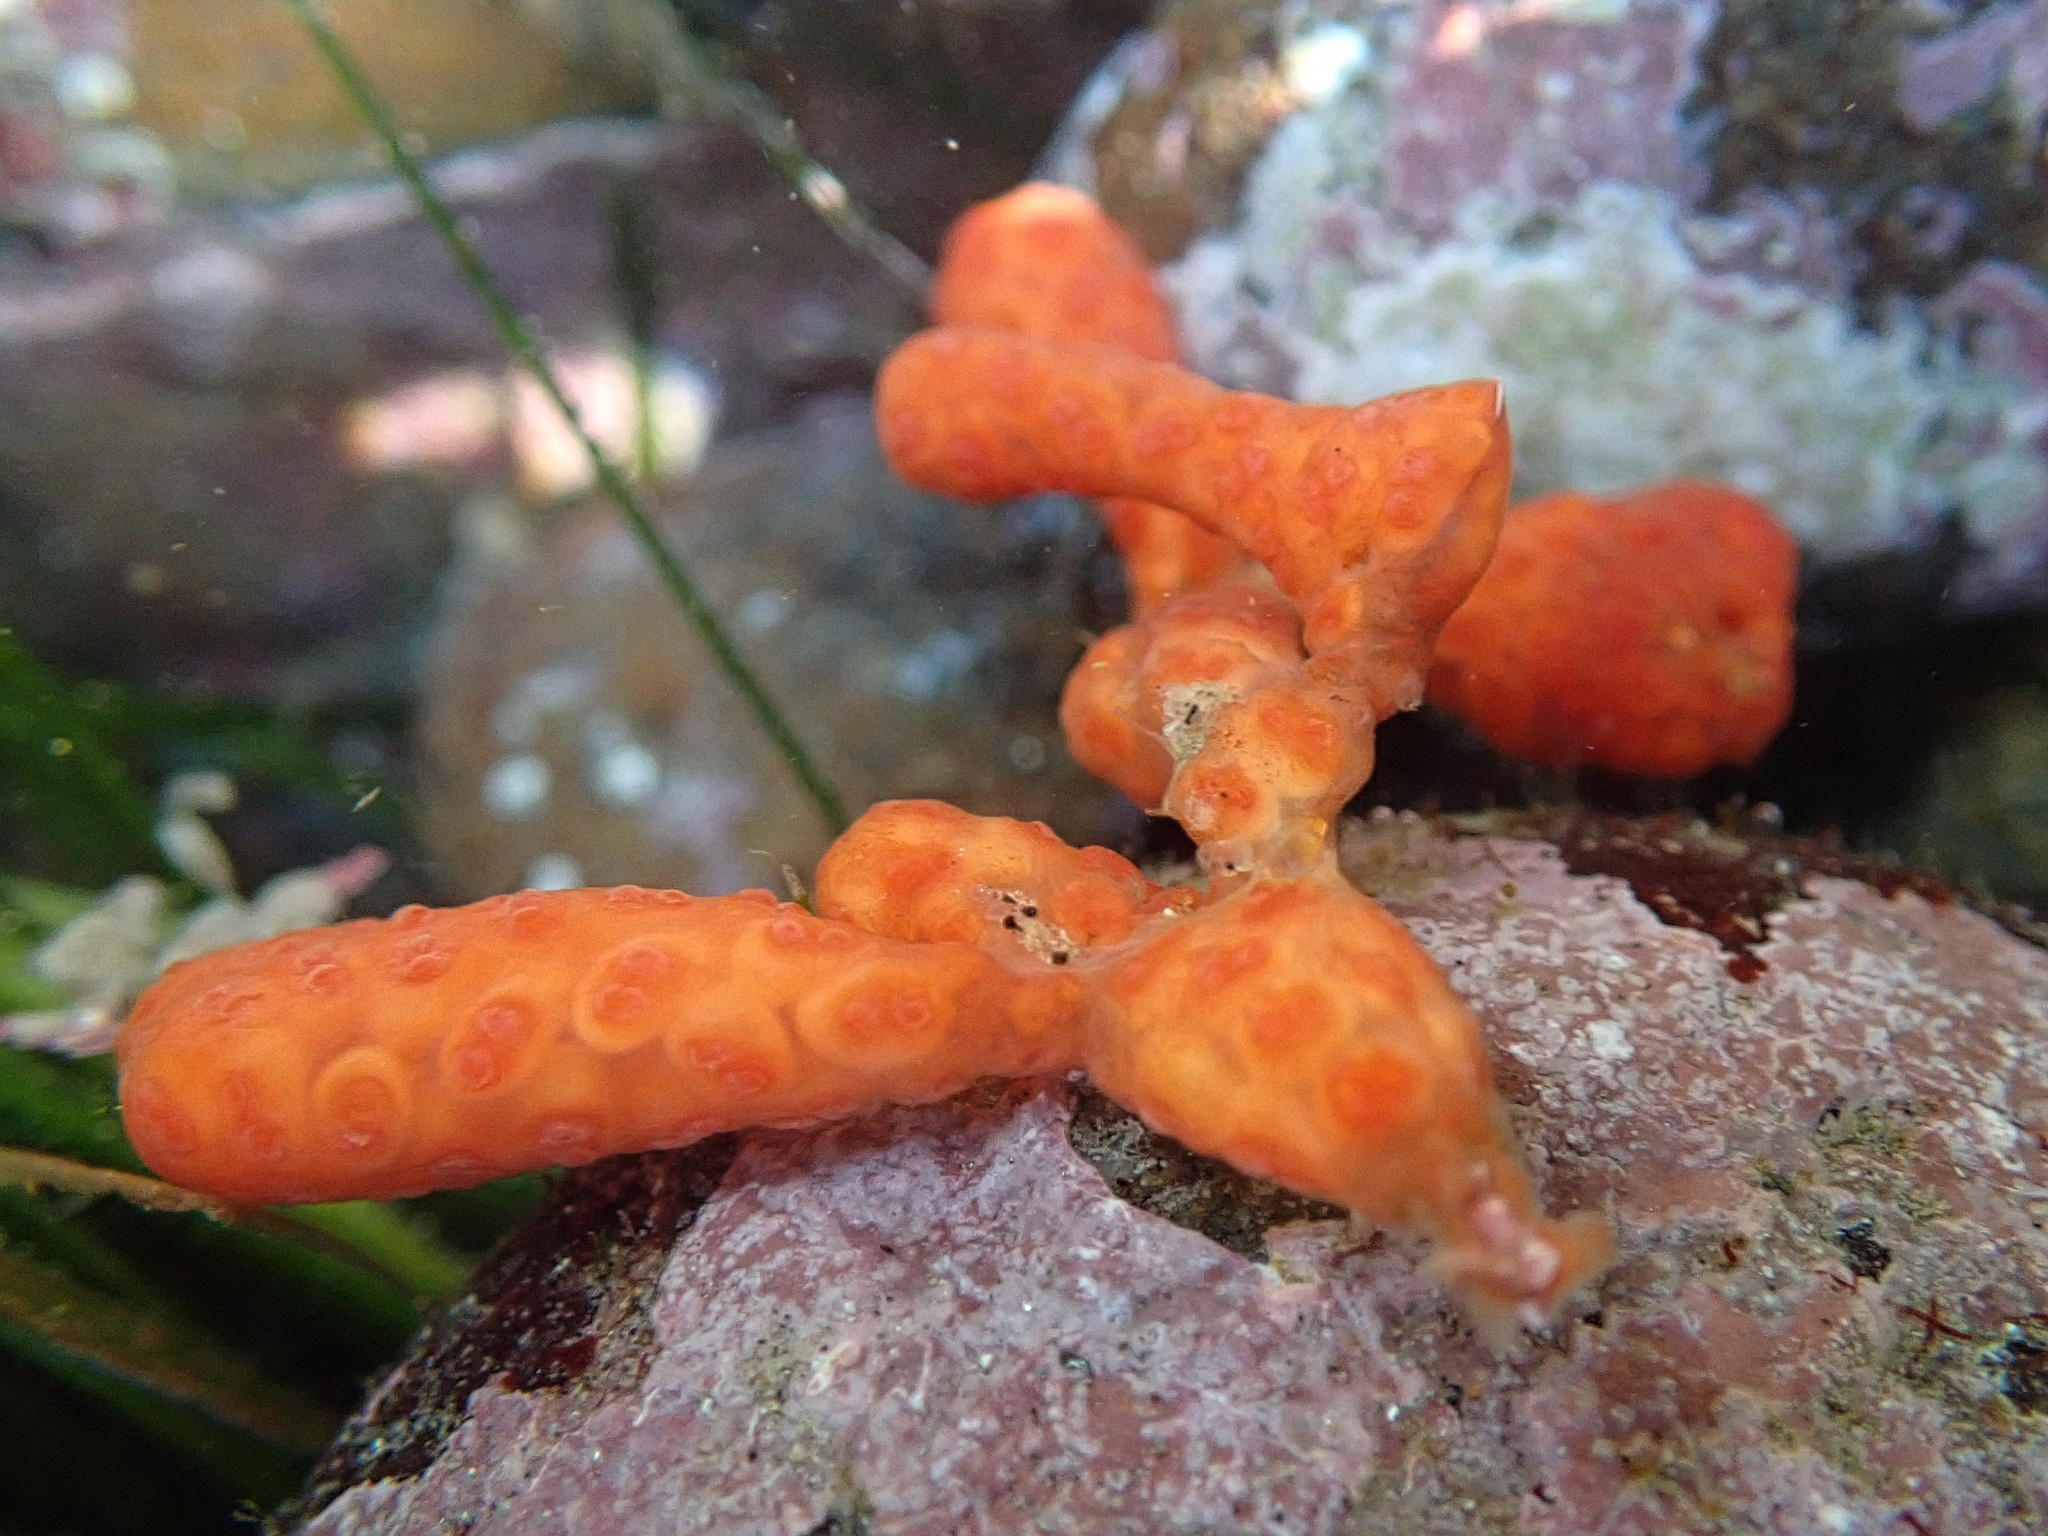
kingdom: Animalia
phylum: Chordata
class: Ascidiacea
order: Stolidobranchia
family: Styelidae
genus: Metandrocarpa
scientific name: Metandrocarpa dura
